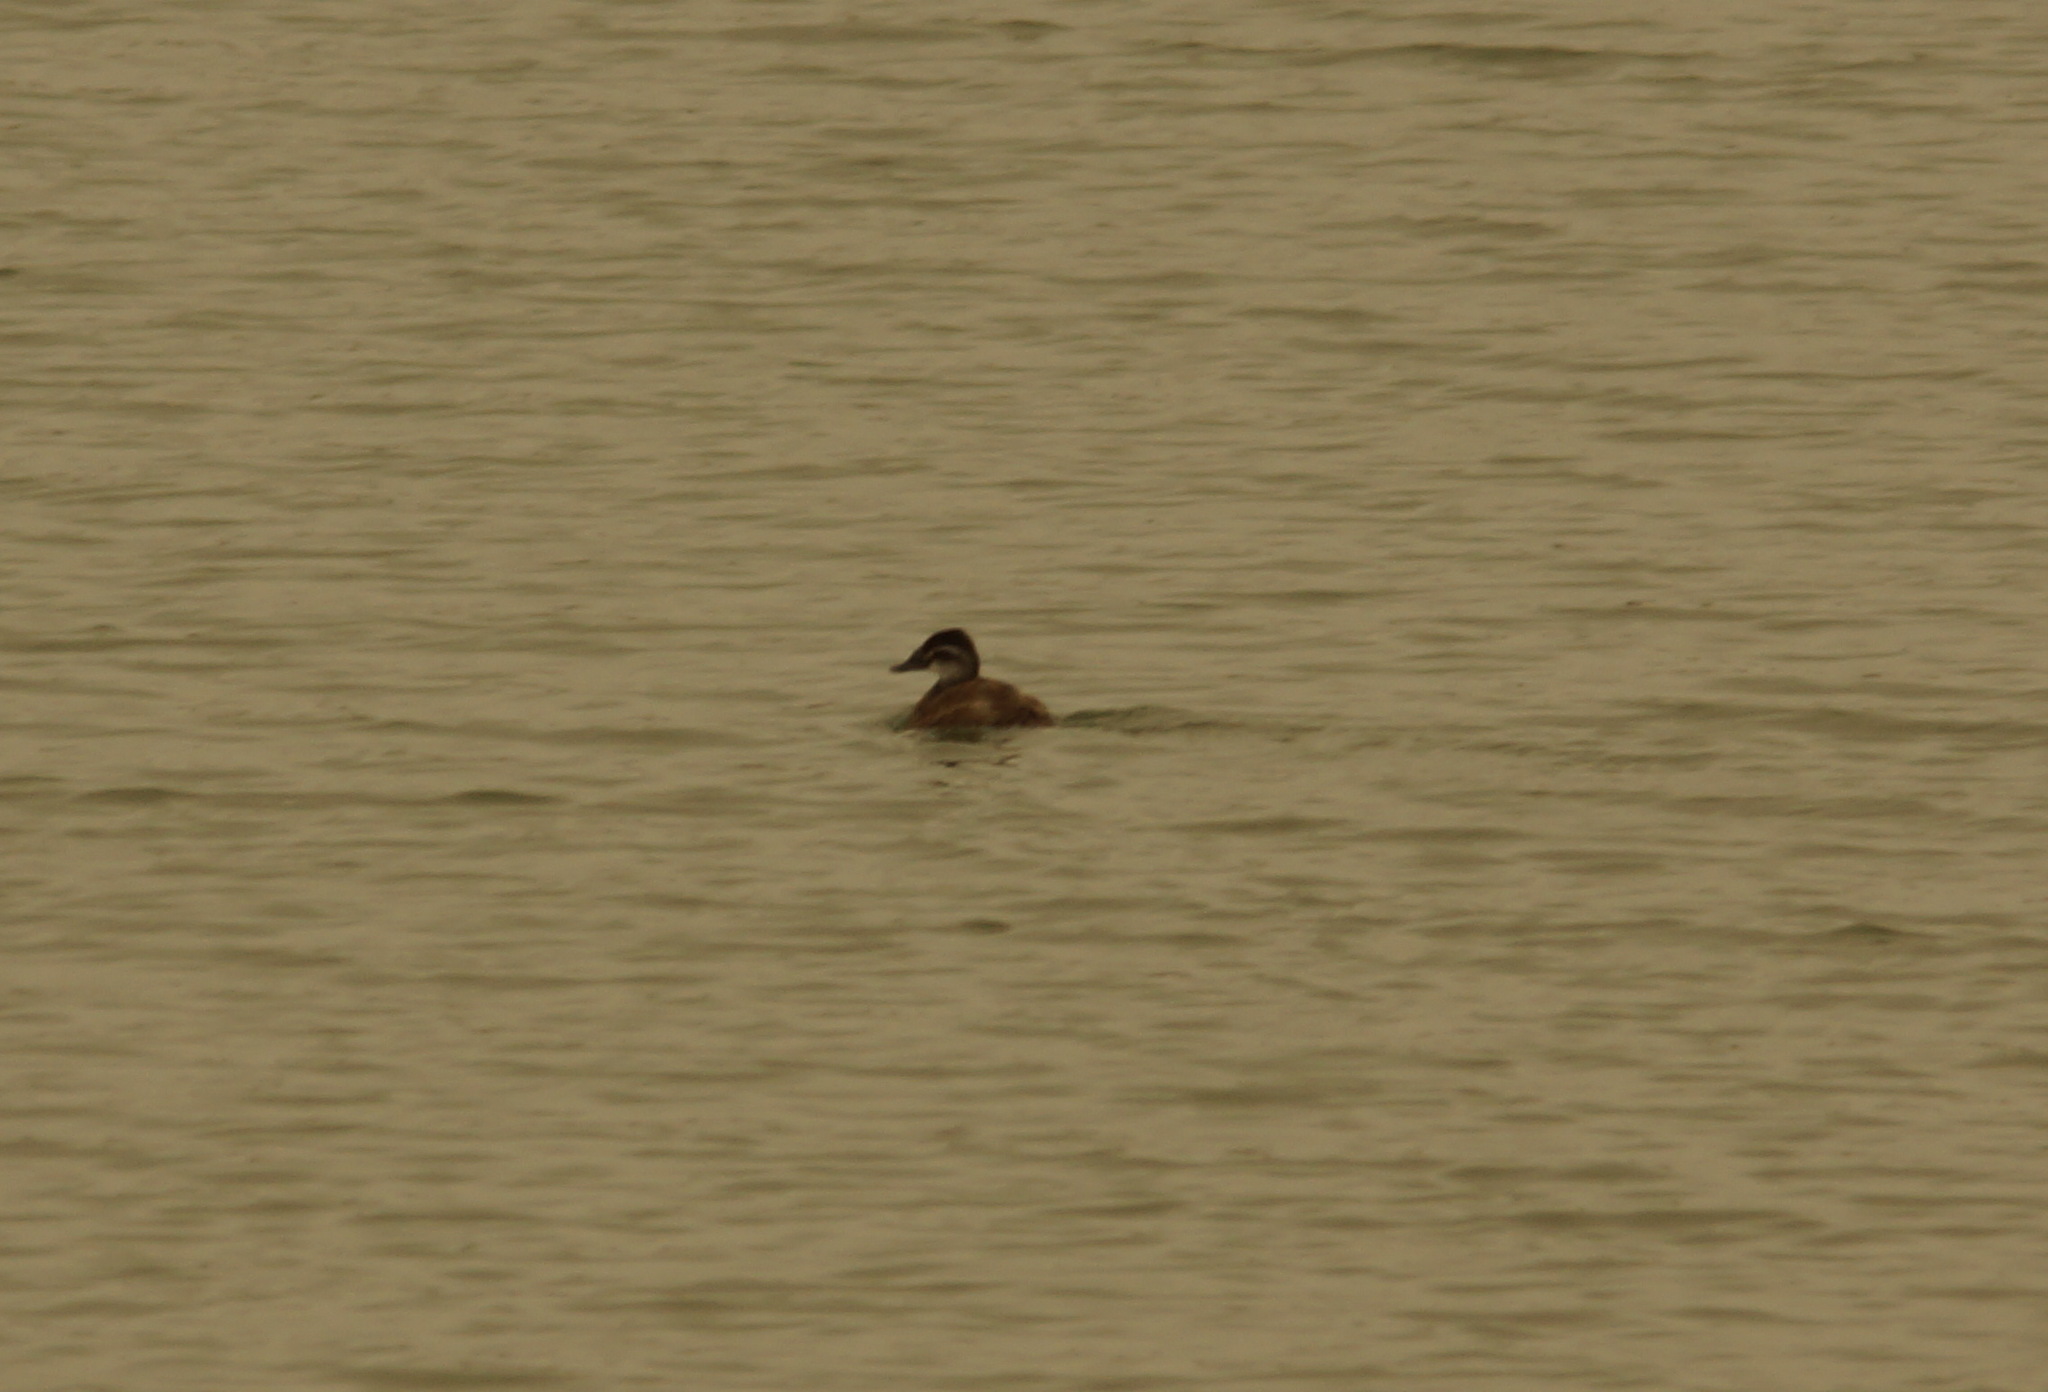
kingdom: Animalia
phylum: Chordata
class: Aves
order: Anseriformes
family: Anatidae
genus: Oxyura
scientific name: Oxyura leucocephala
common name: White-headed duck
